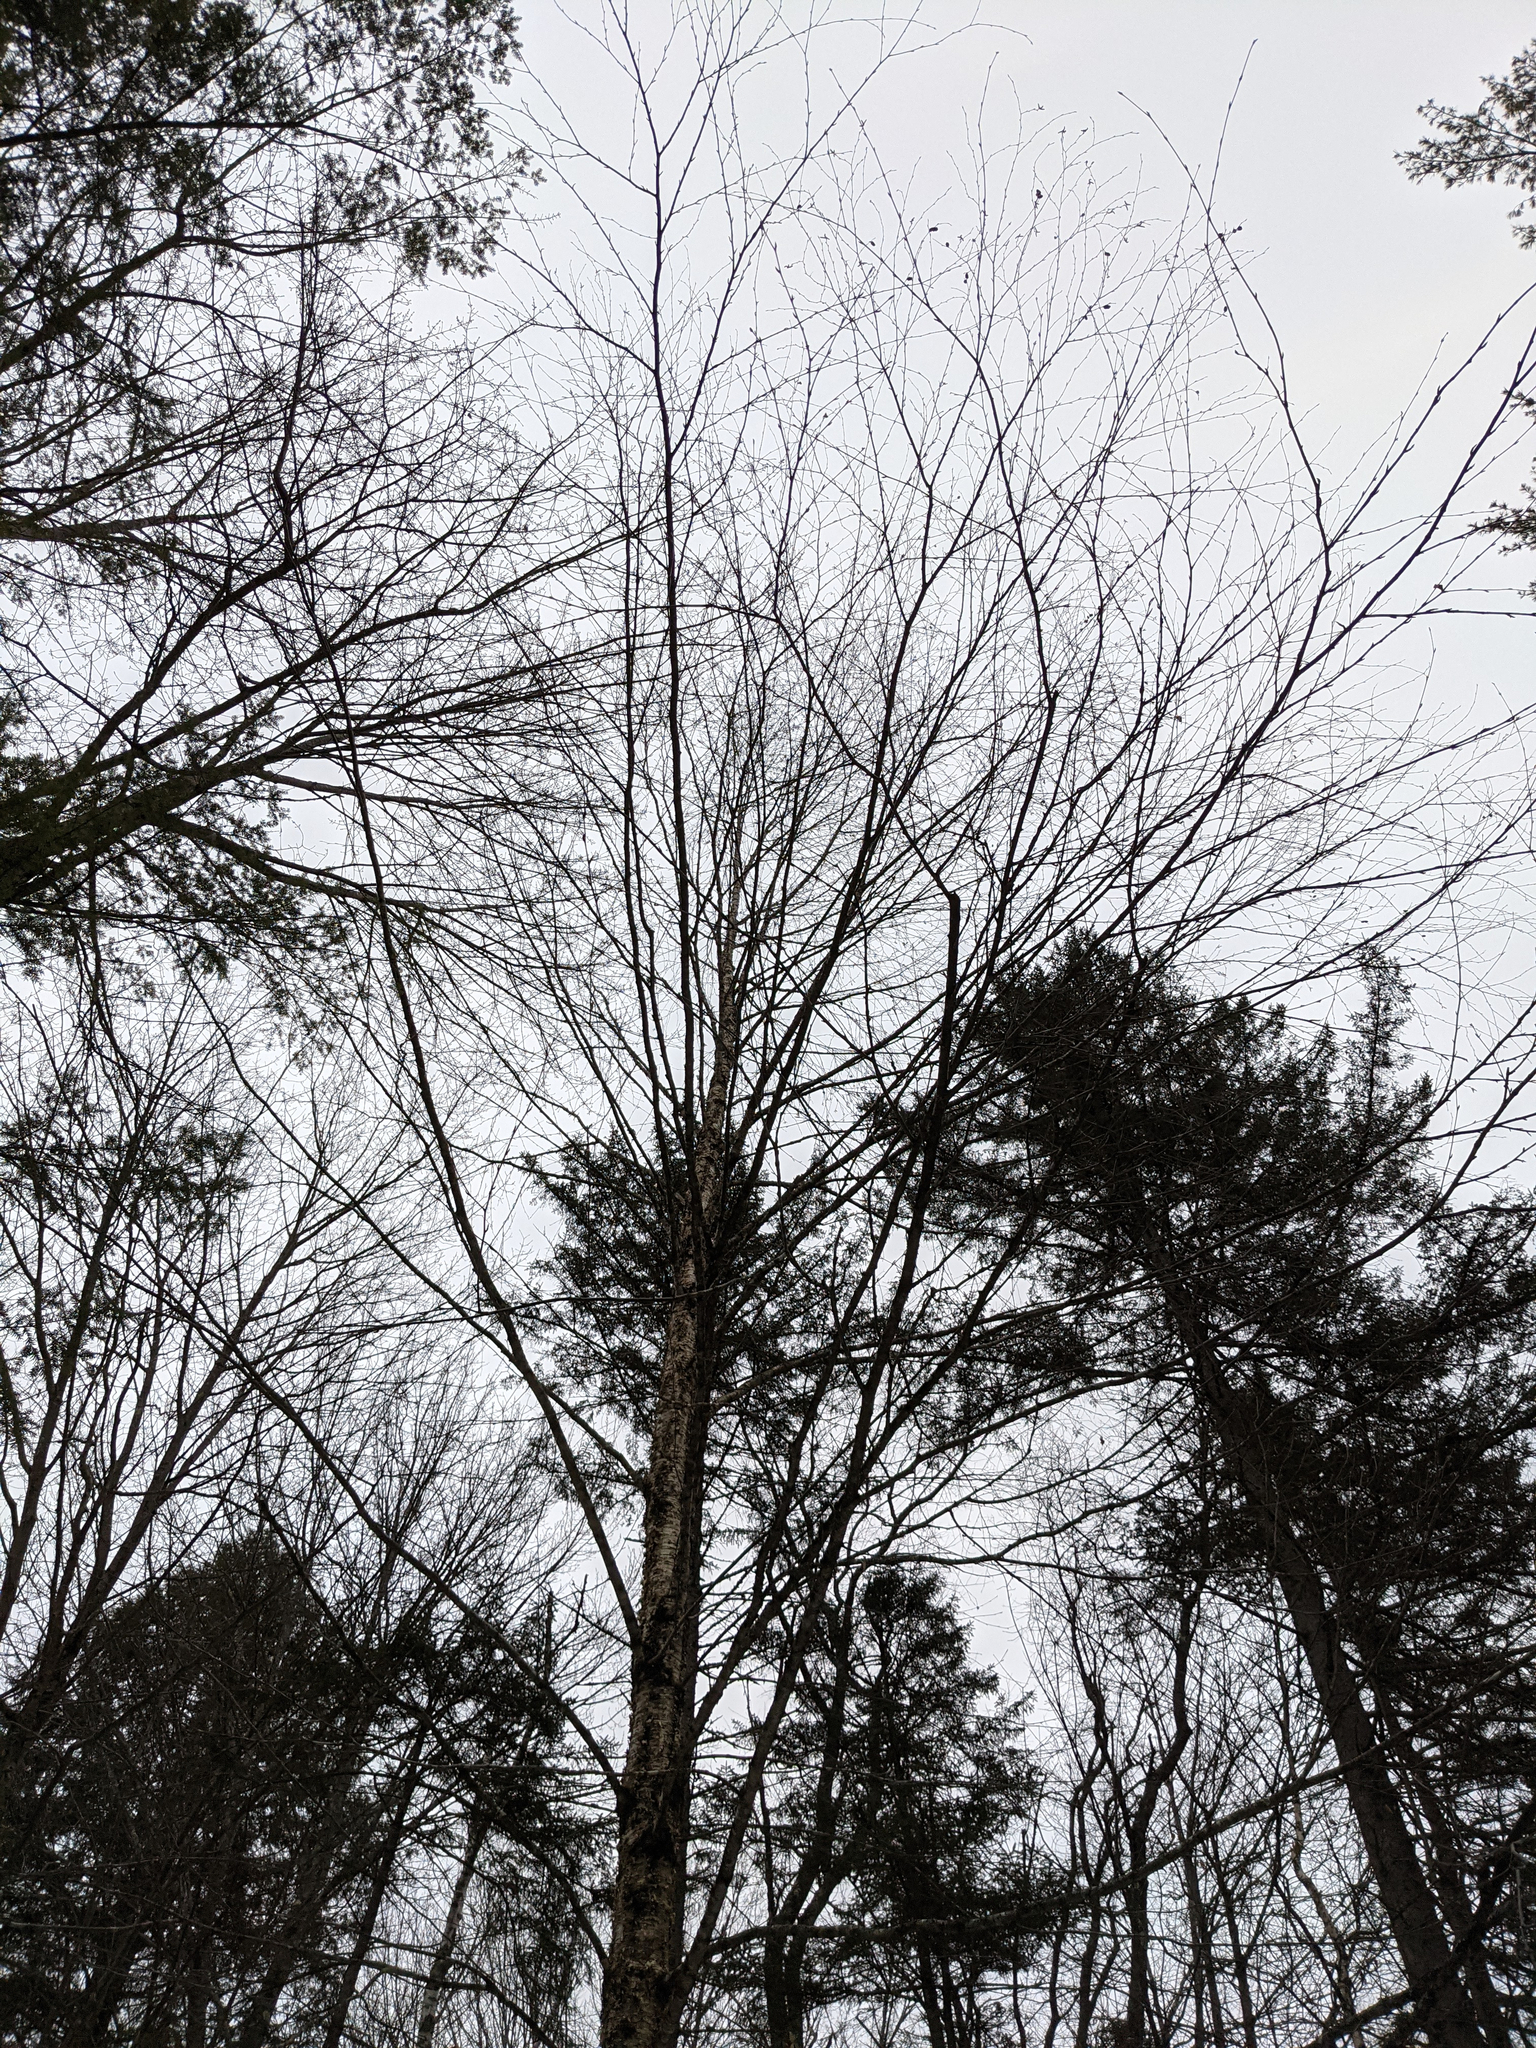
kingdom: Plantae
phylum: Tracheophyta
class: Magnoliopsida
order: Fagales
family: Betulaceae
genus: Betula
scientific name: Betula alleghaniensis
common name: Yellow birch
